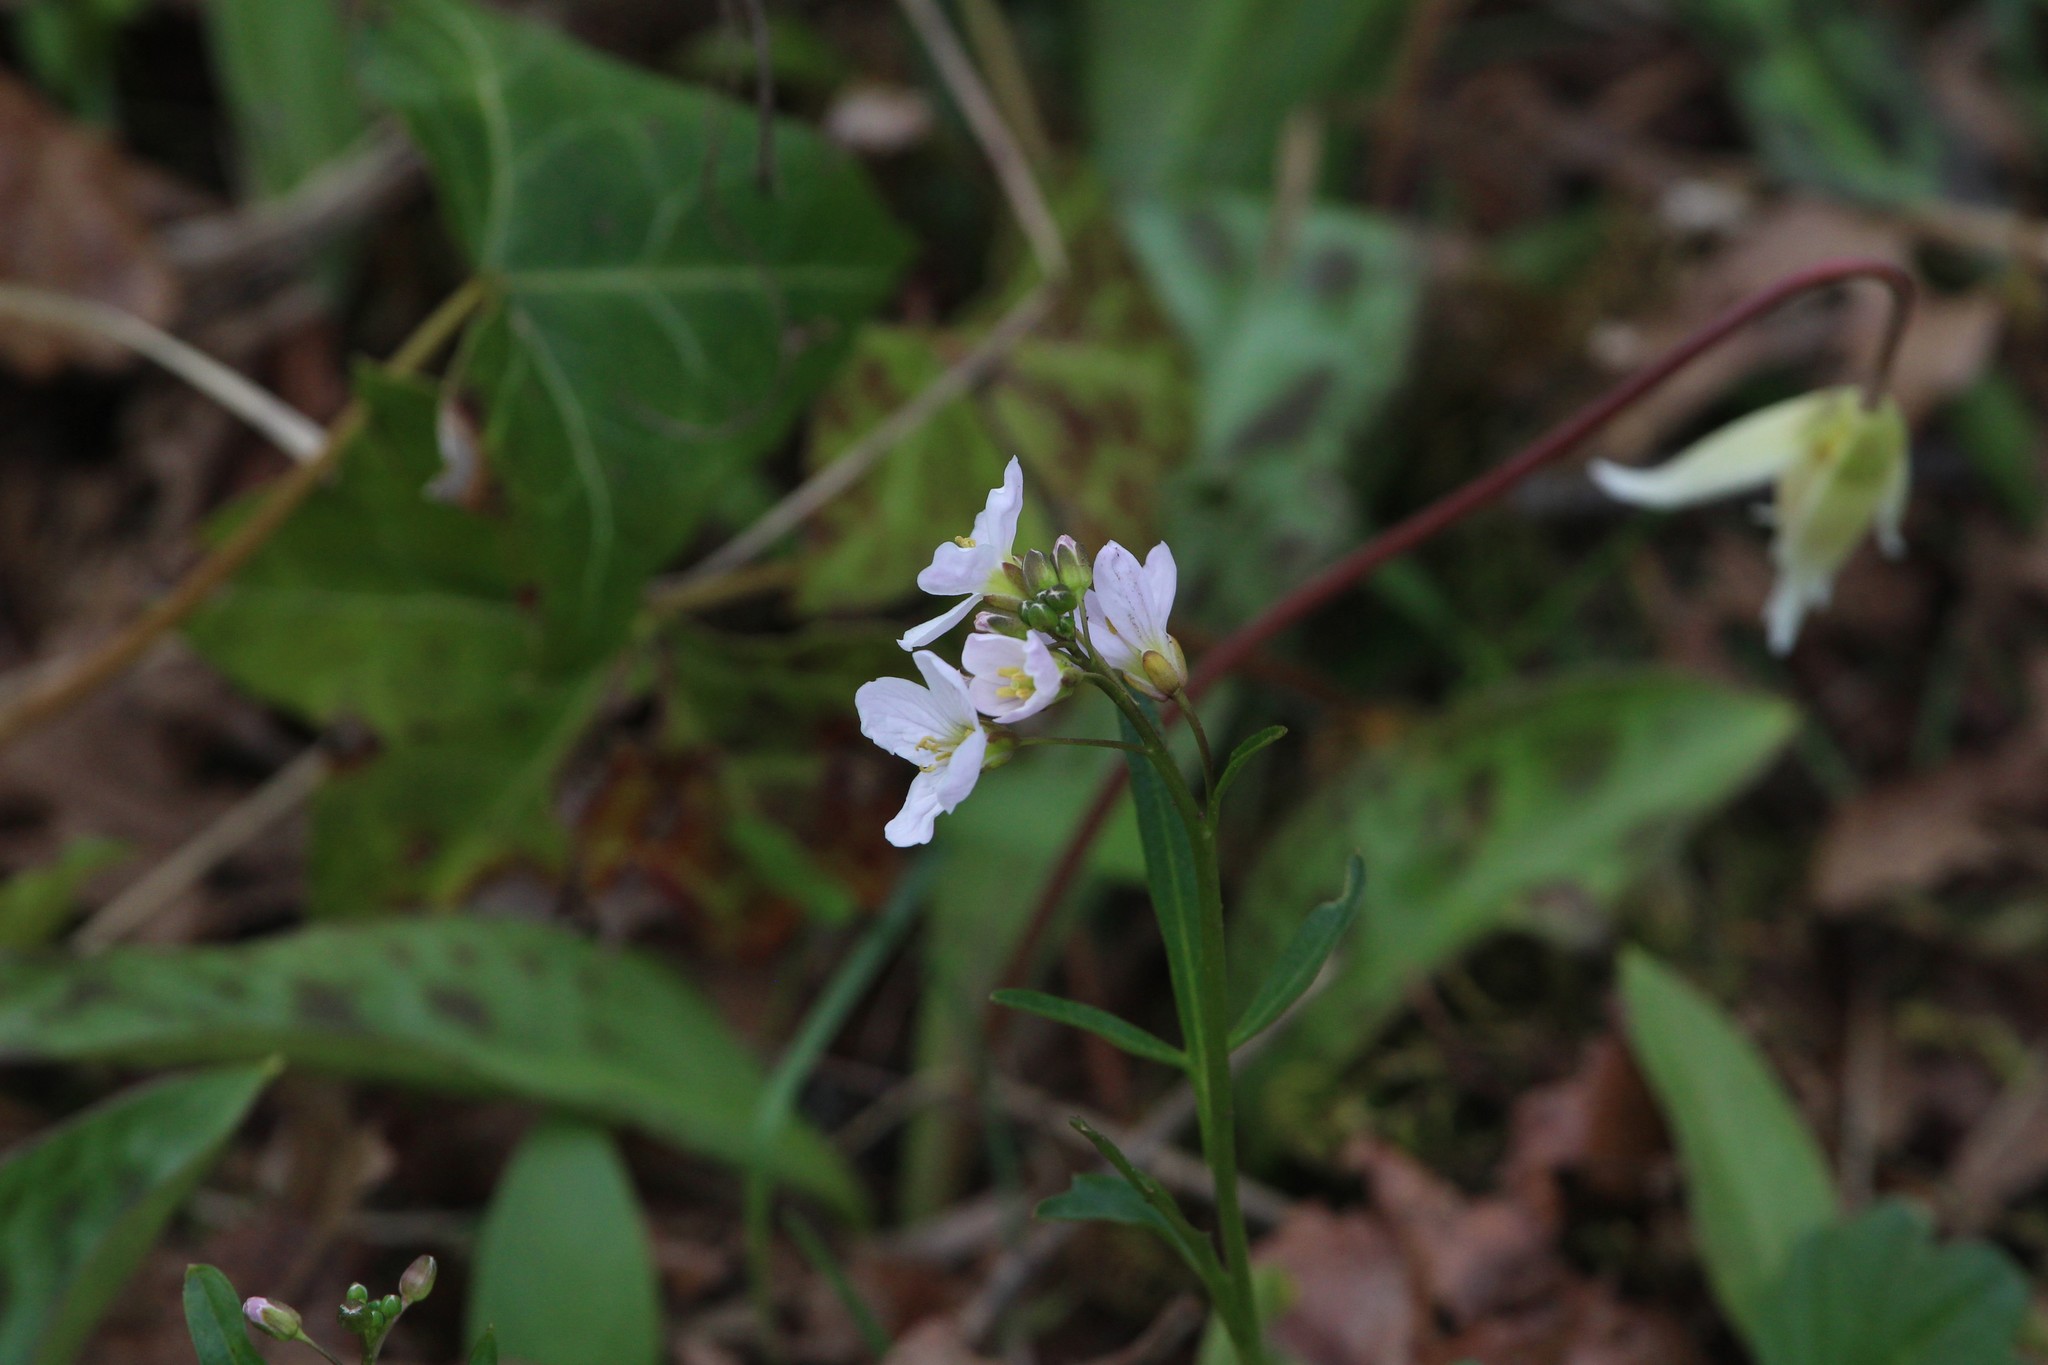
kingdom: Plantae
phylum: Tracheophyta
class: Magnoliopsida
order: Brassicales
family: Brassicaceae
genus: Cardamine
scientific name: Cardamine nuttallii
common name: Nuttall's toothwort
